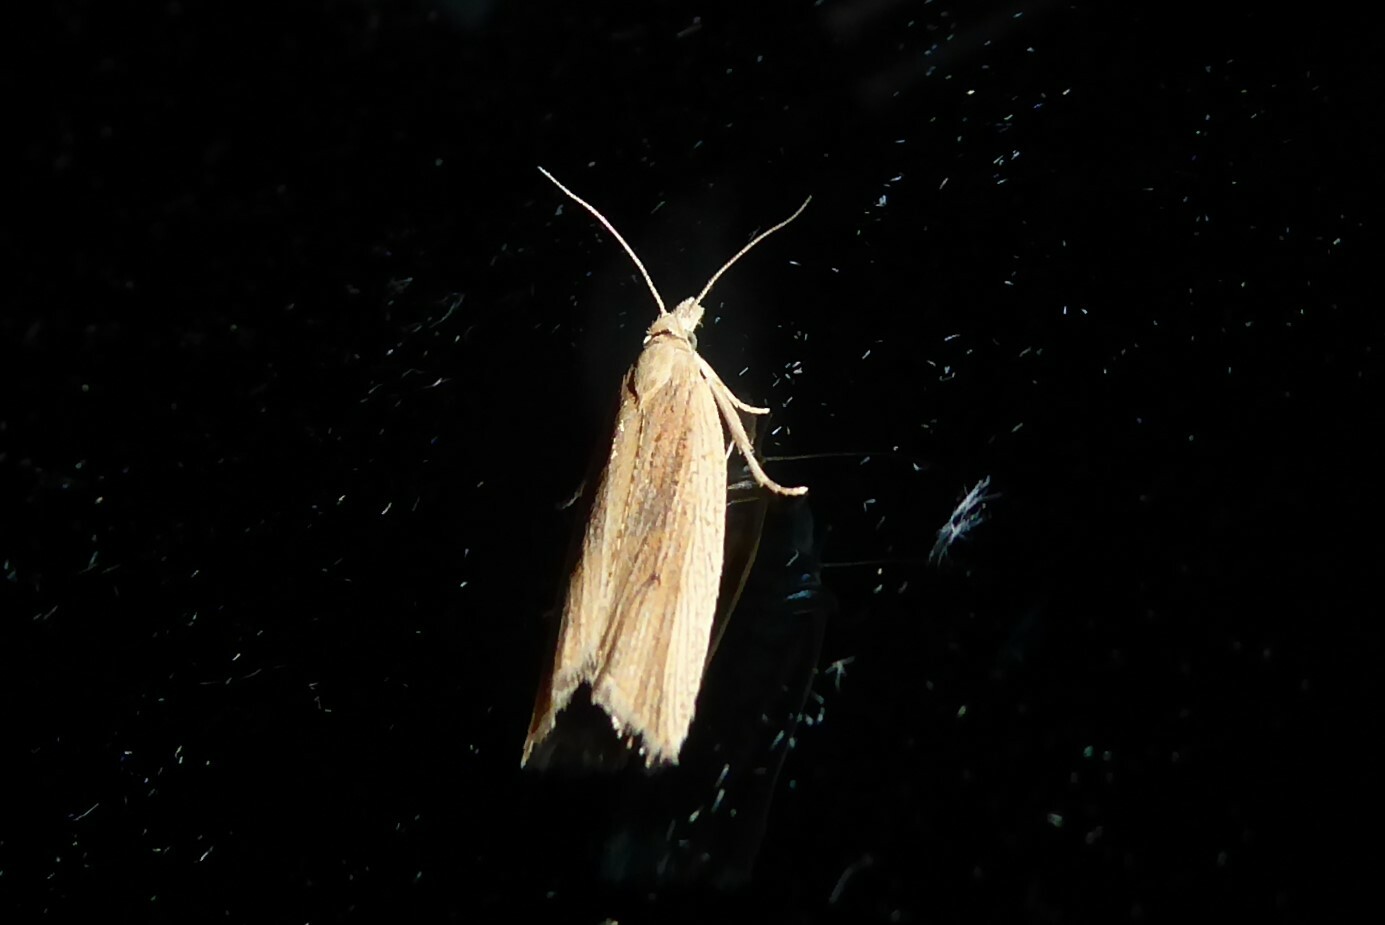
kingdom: Animalia
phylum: Arthropoda
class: Insecta
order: Lepidoptera
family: Tortricidae
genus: Bactra
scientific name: Bactra noteraula
